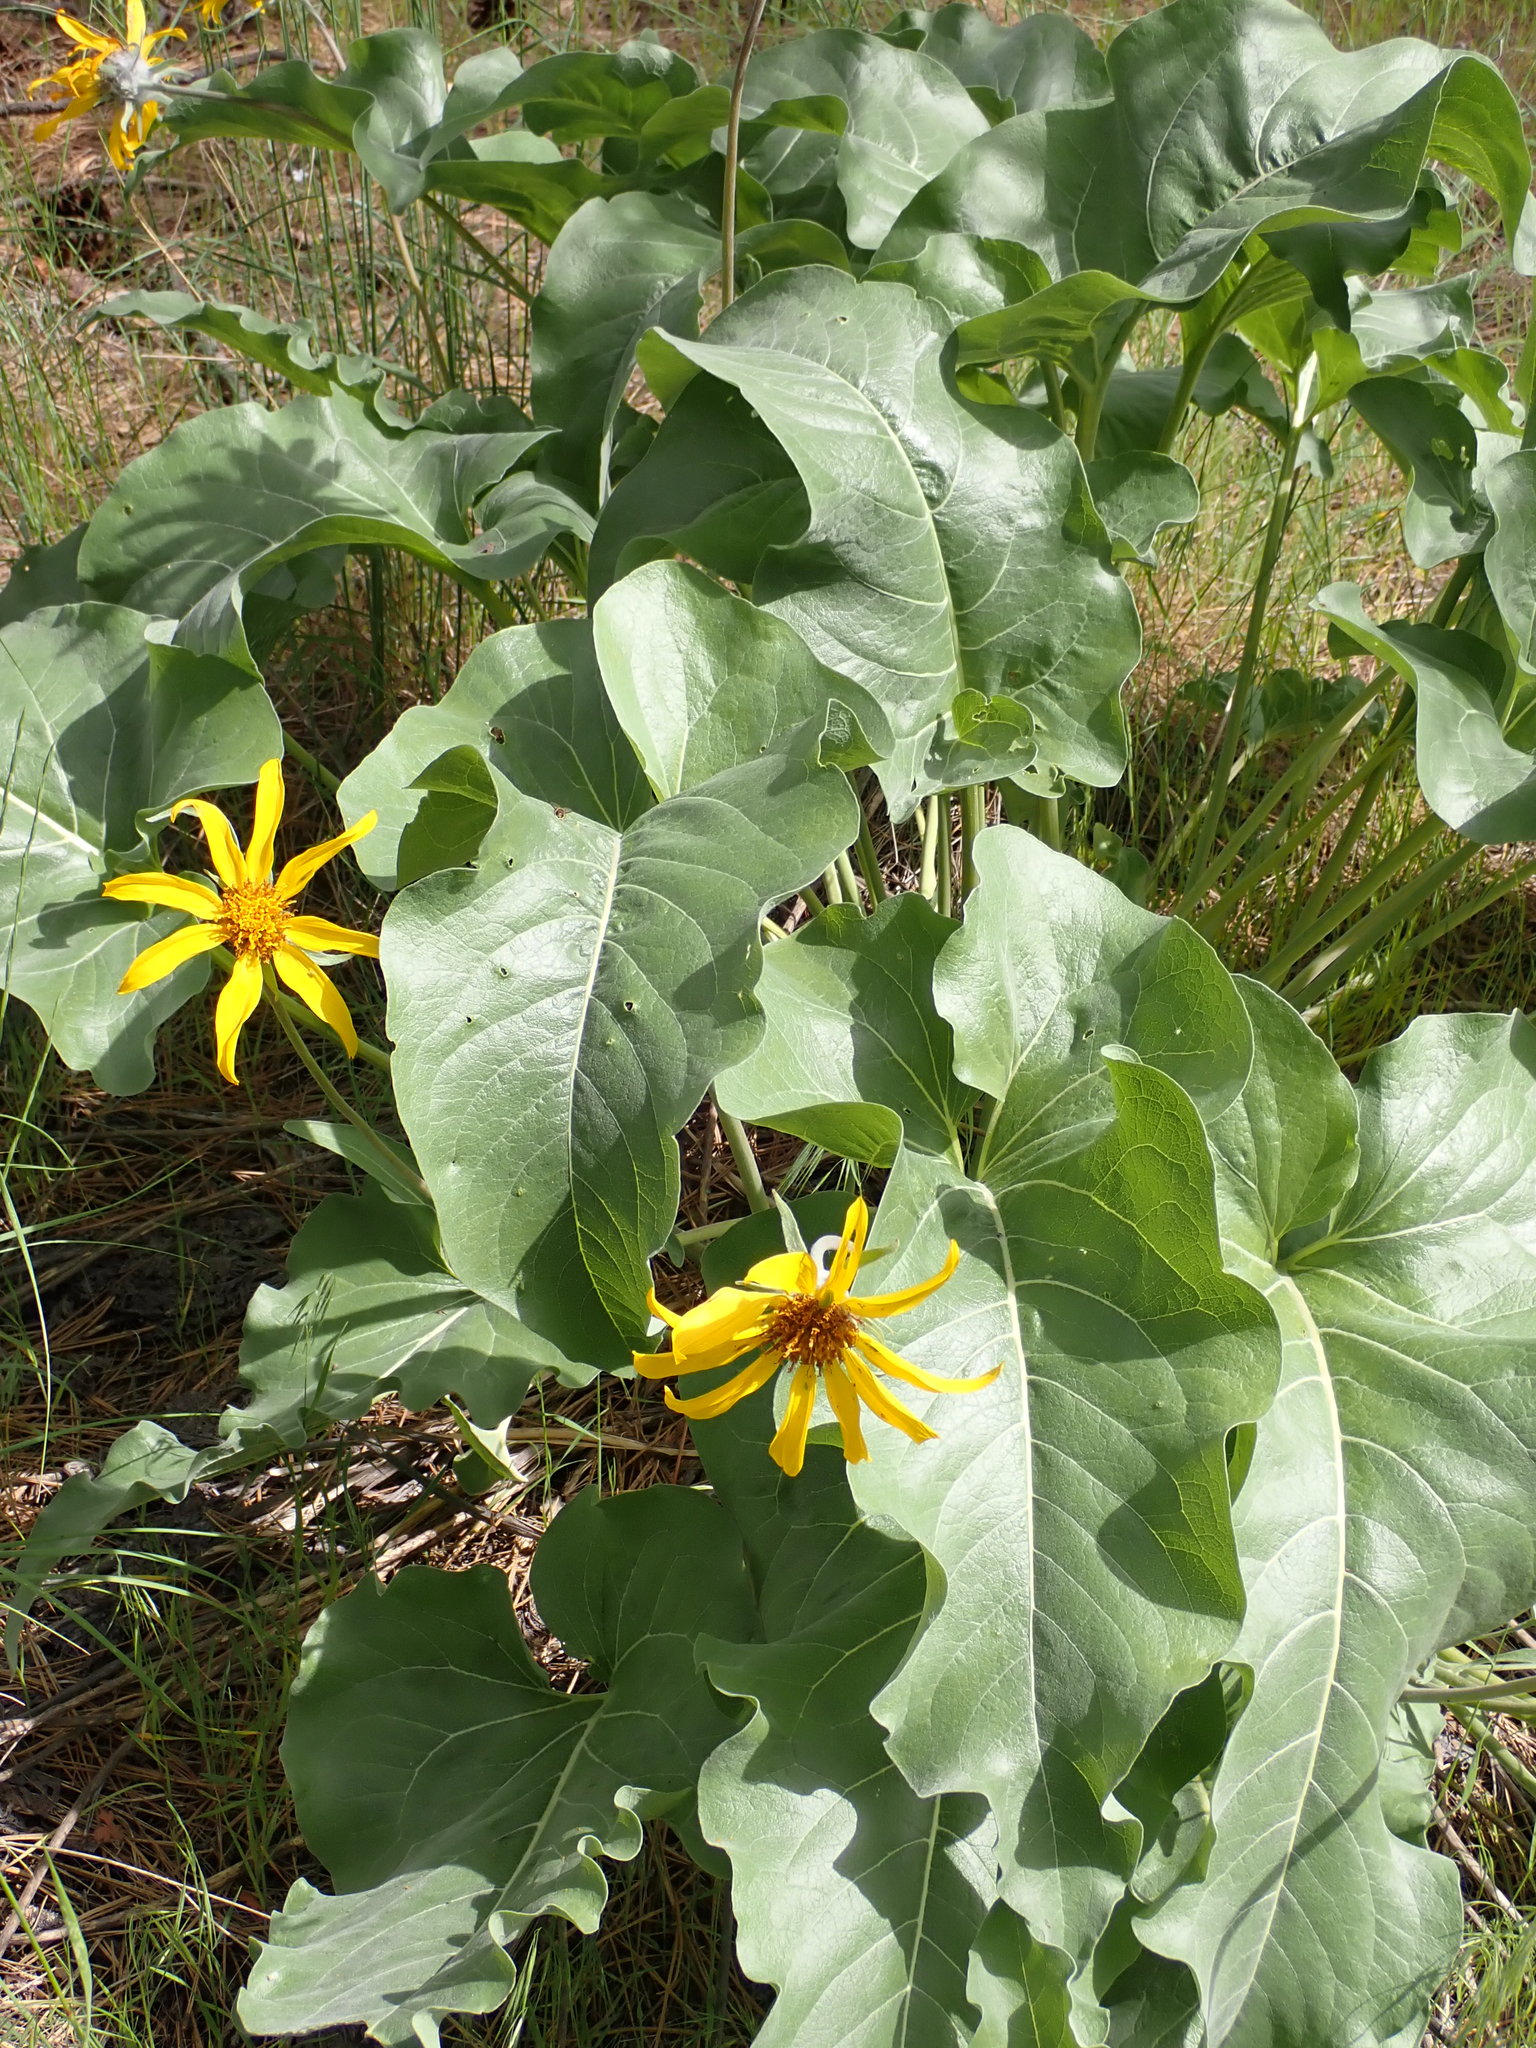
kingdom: Plantae
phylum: Tracheophyta
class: Magnoliopsida
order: Asterales
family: Asteraceae
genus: Wyethia
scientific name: Wyethia sagittata
